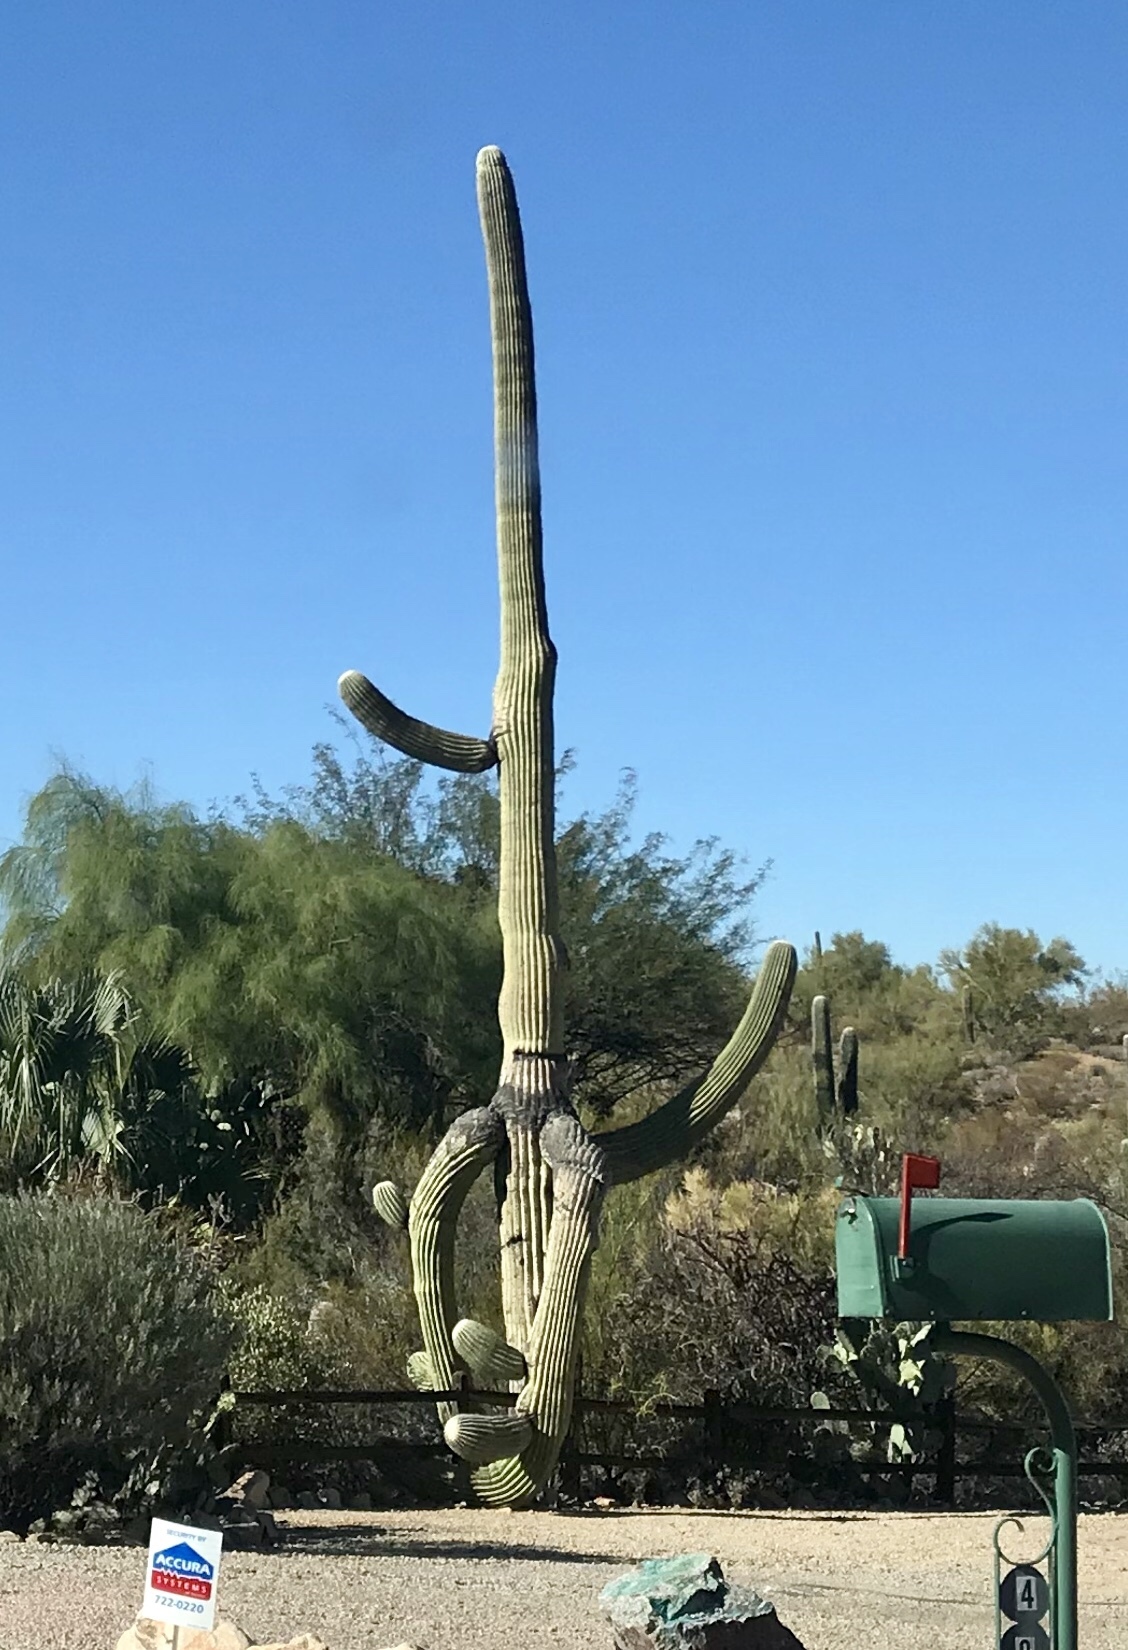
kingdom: Plantae
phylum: Tracheophyta
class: Magnoliopsida
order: Caryophyllales
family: Cactaceae
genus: Carnegiea
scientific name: Carnegiea gigantea
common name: Saguaro
